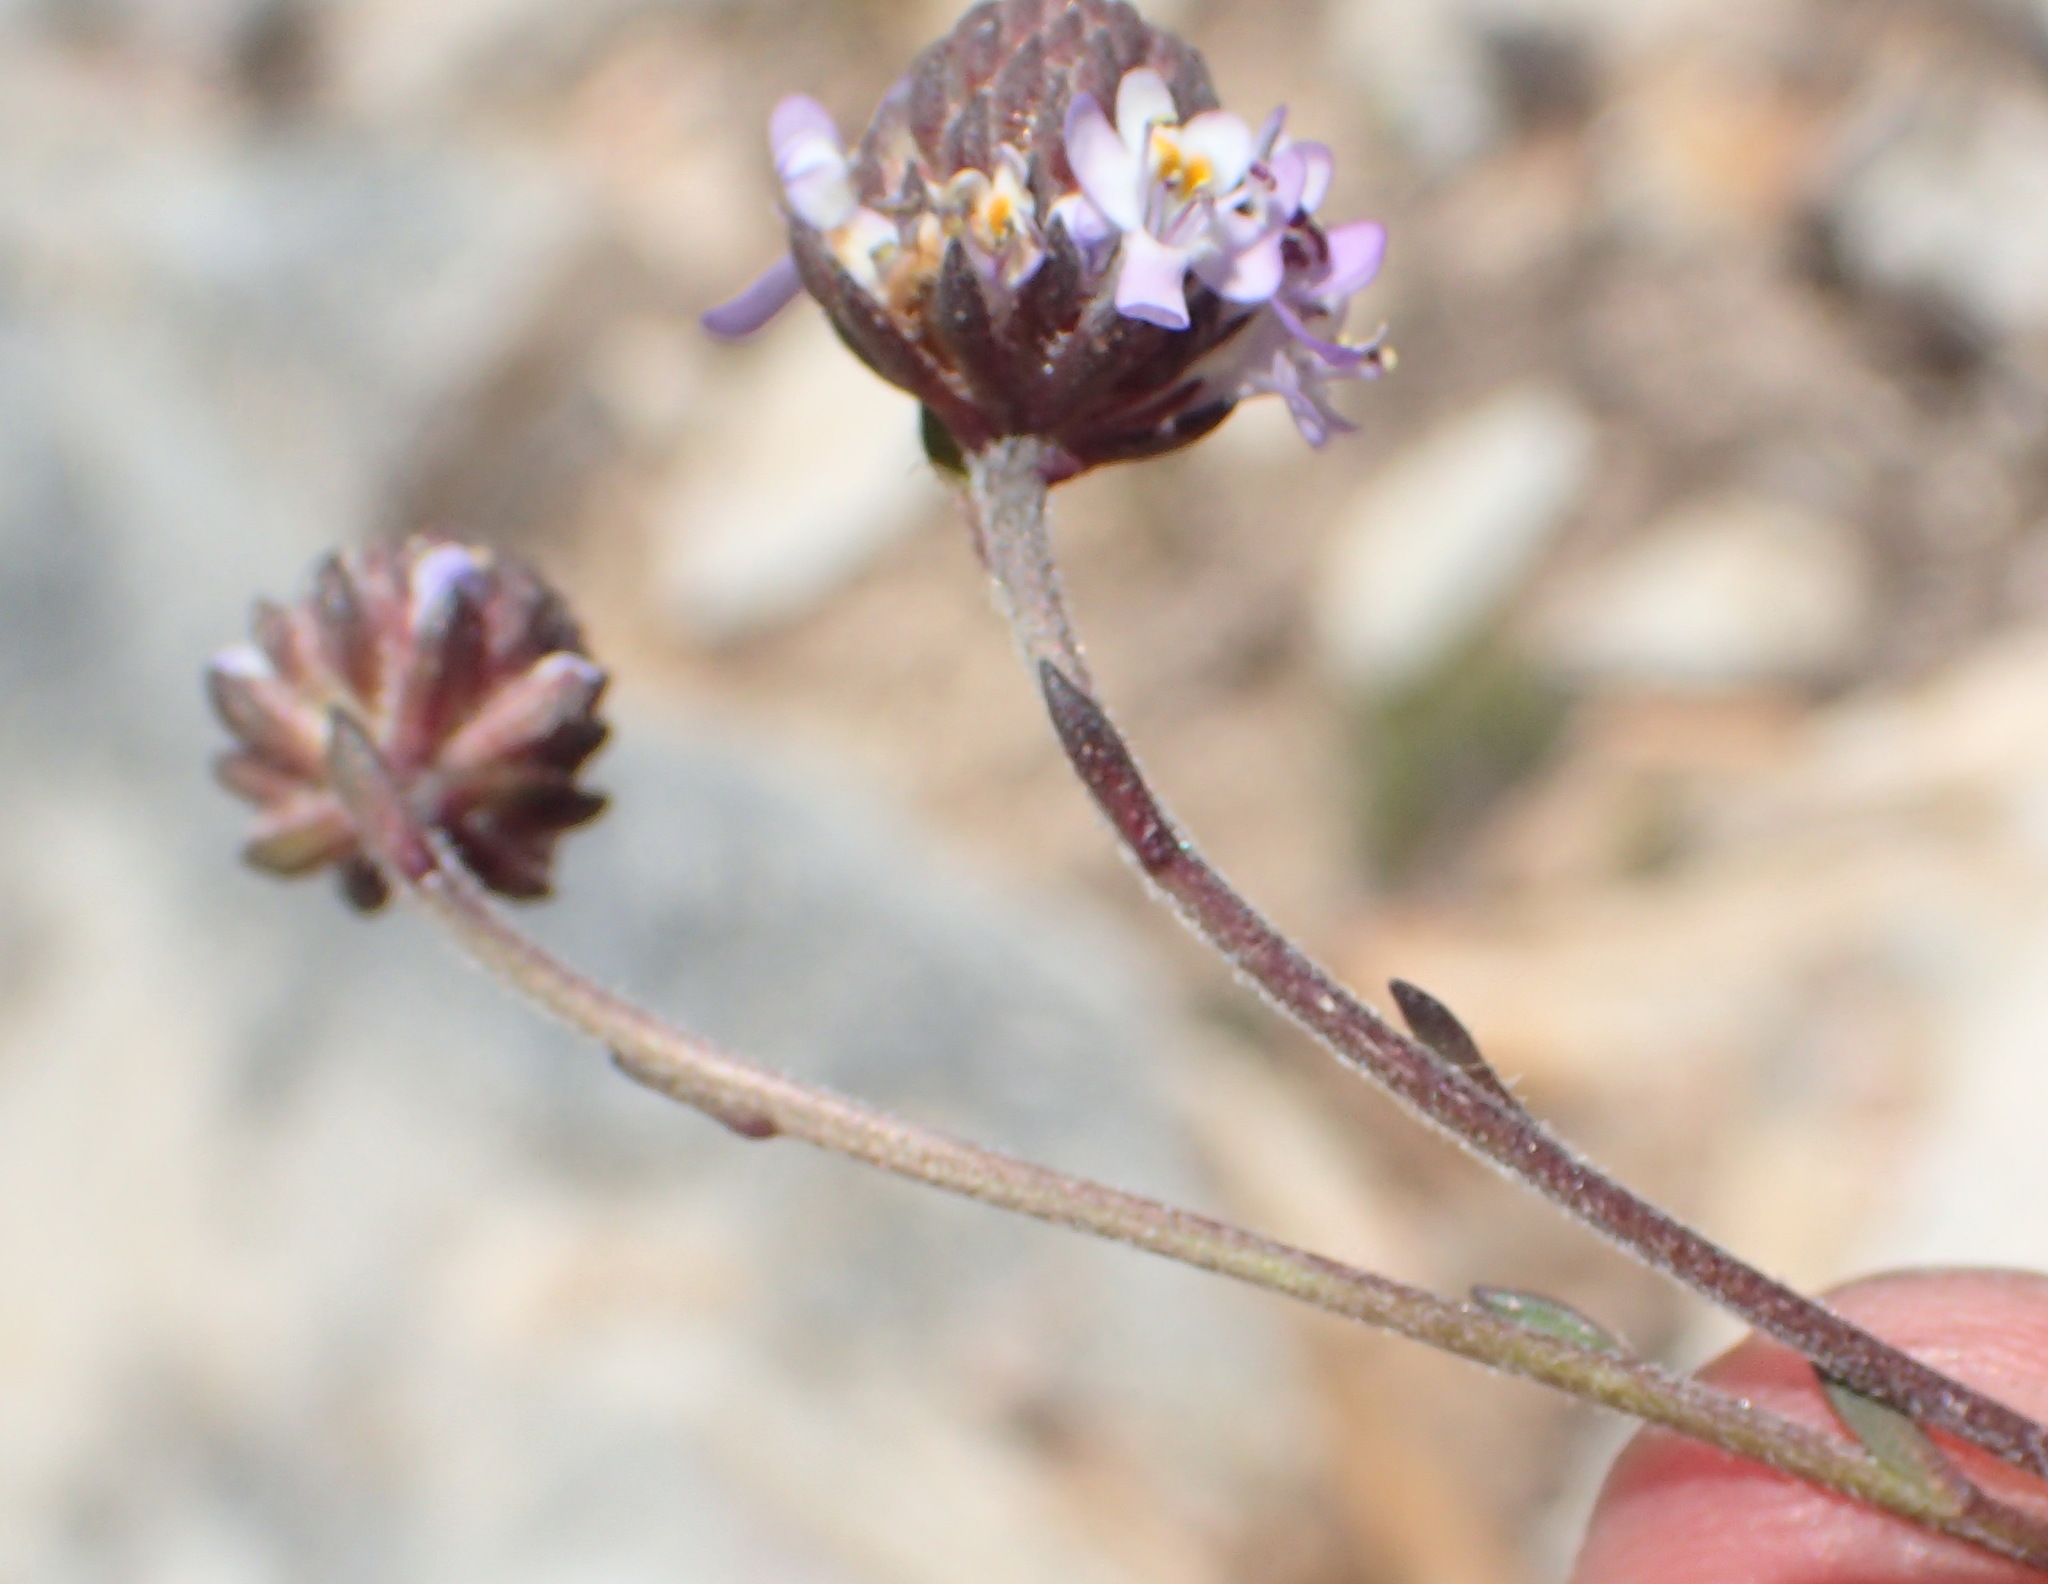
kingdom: Plantae
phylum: Tracheophyta
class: Magnoliopsida
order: Lamiales
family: Scrophulariaceae
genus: Pseudoselago
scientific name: Pseudoselago bella
